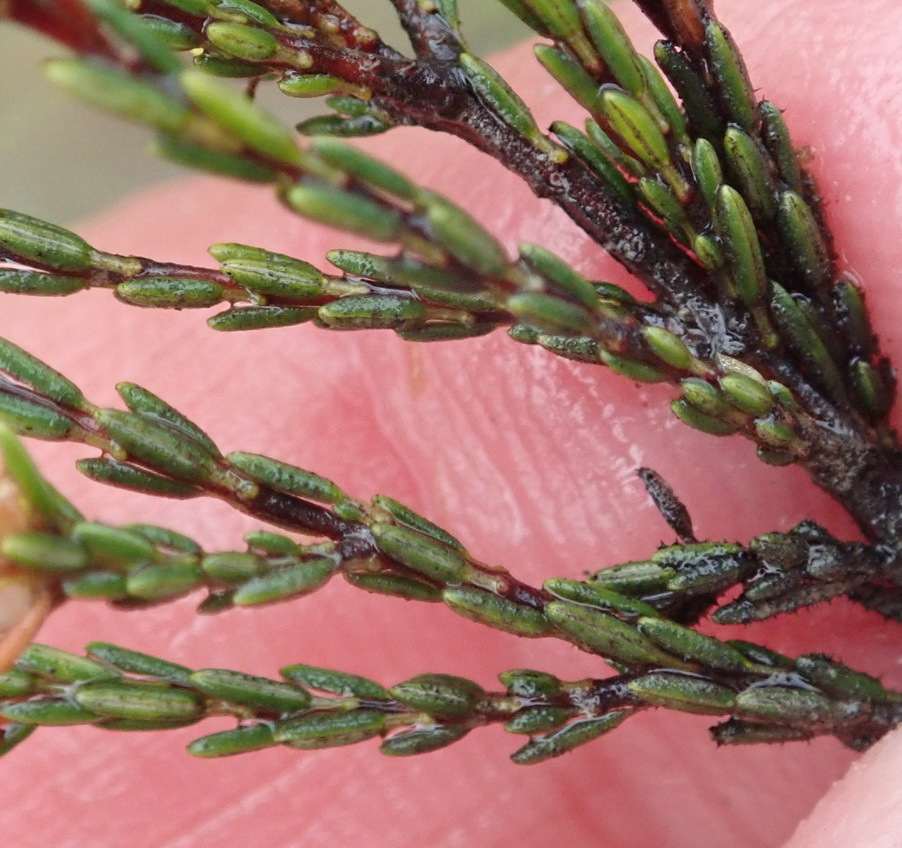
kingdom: Plantae
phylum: Tracheophyta
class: Magnoliopsida
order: Ericales
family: Ericaceae
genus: Erica
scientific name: Erica tenuis
